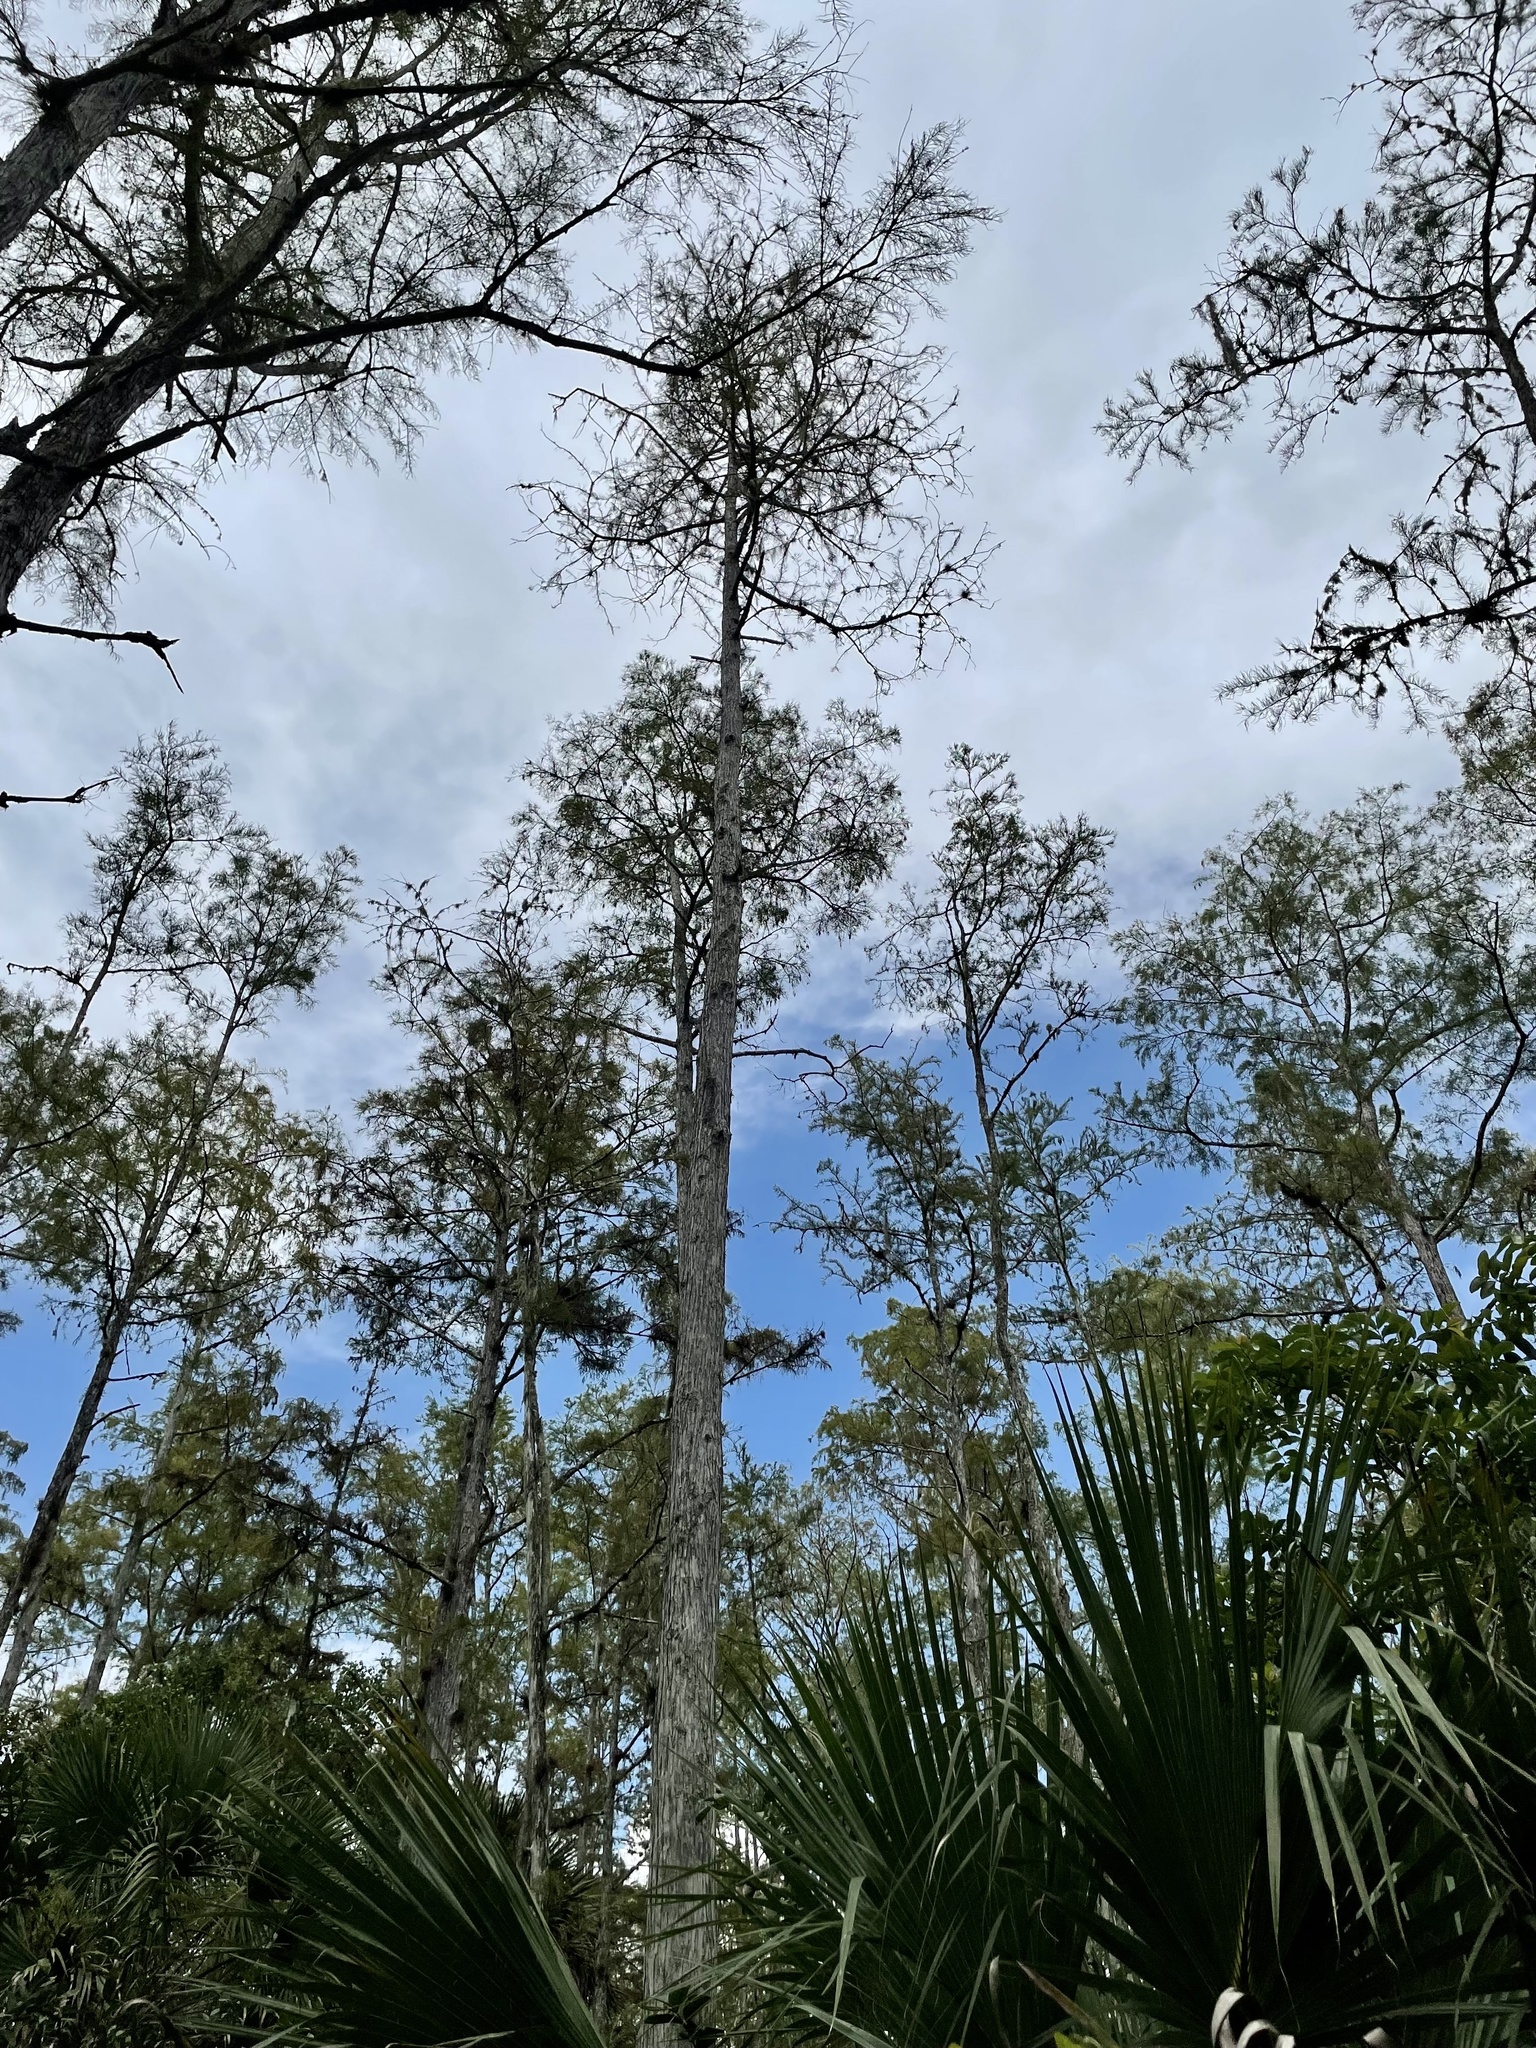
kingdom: Plantae
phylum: Tracheophyta
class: Pinopsida
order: Pinales
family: Cupressaceae
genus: Taxodium
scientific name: Taxodium distichum
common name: Bald cypress
